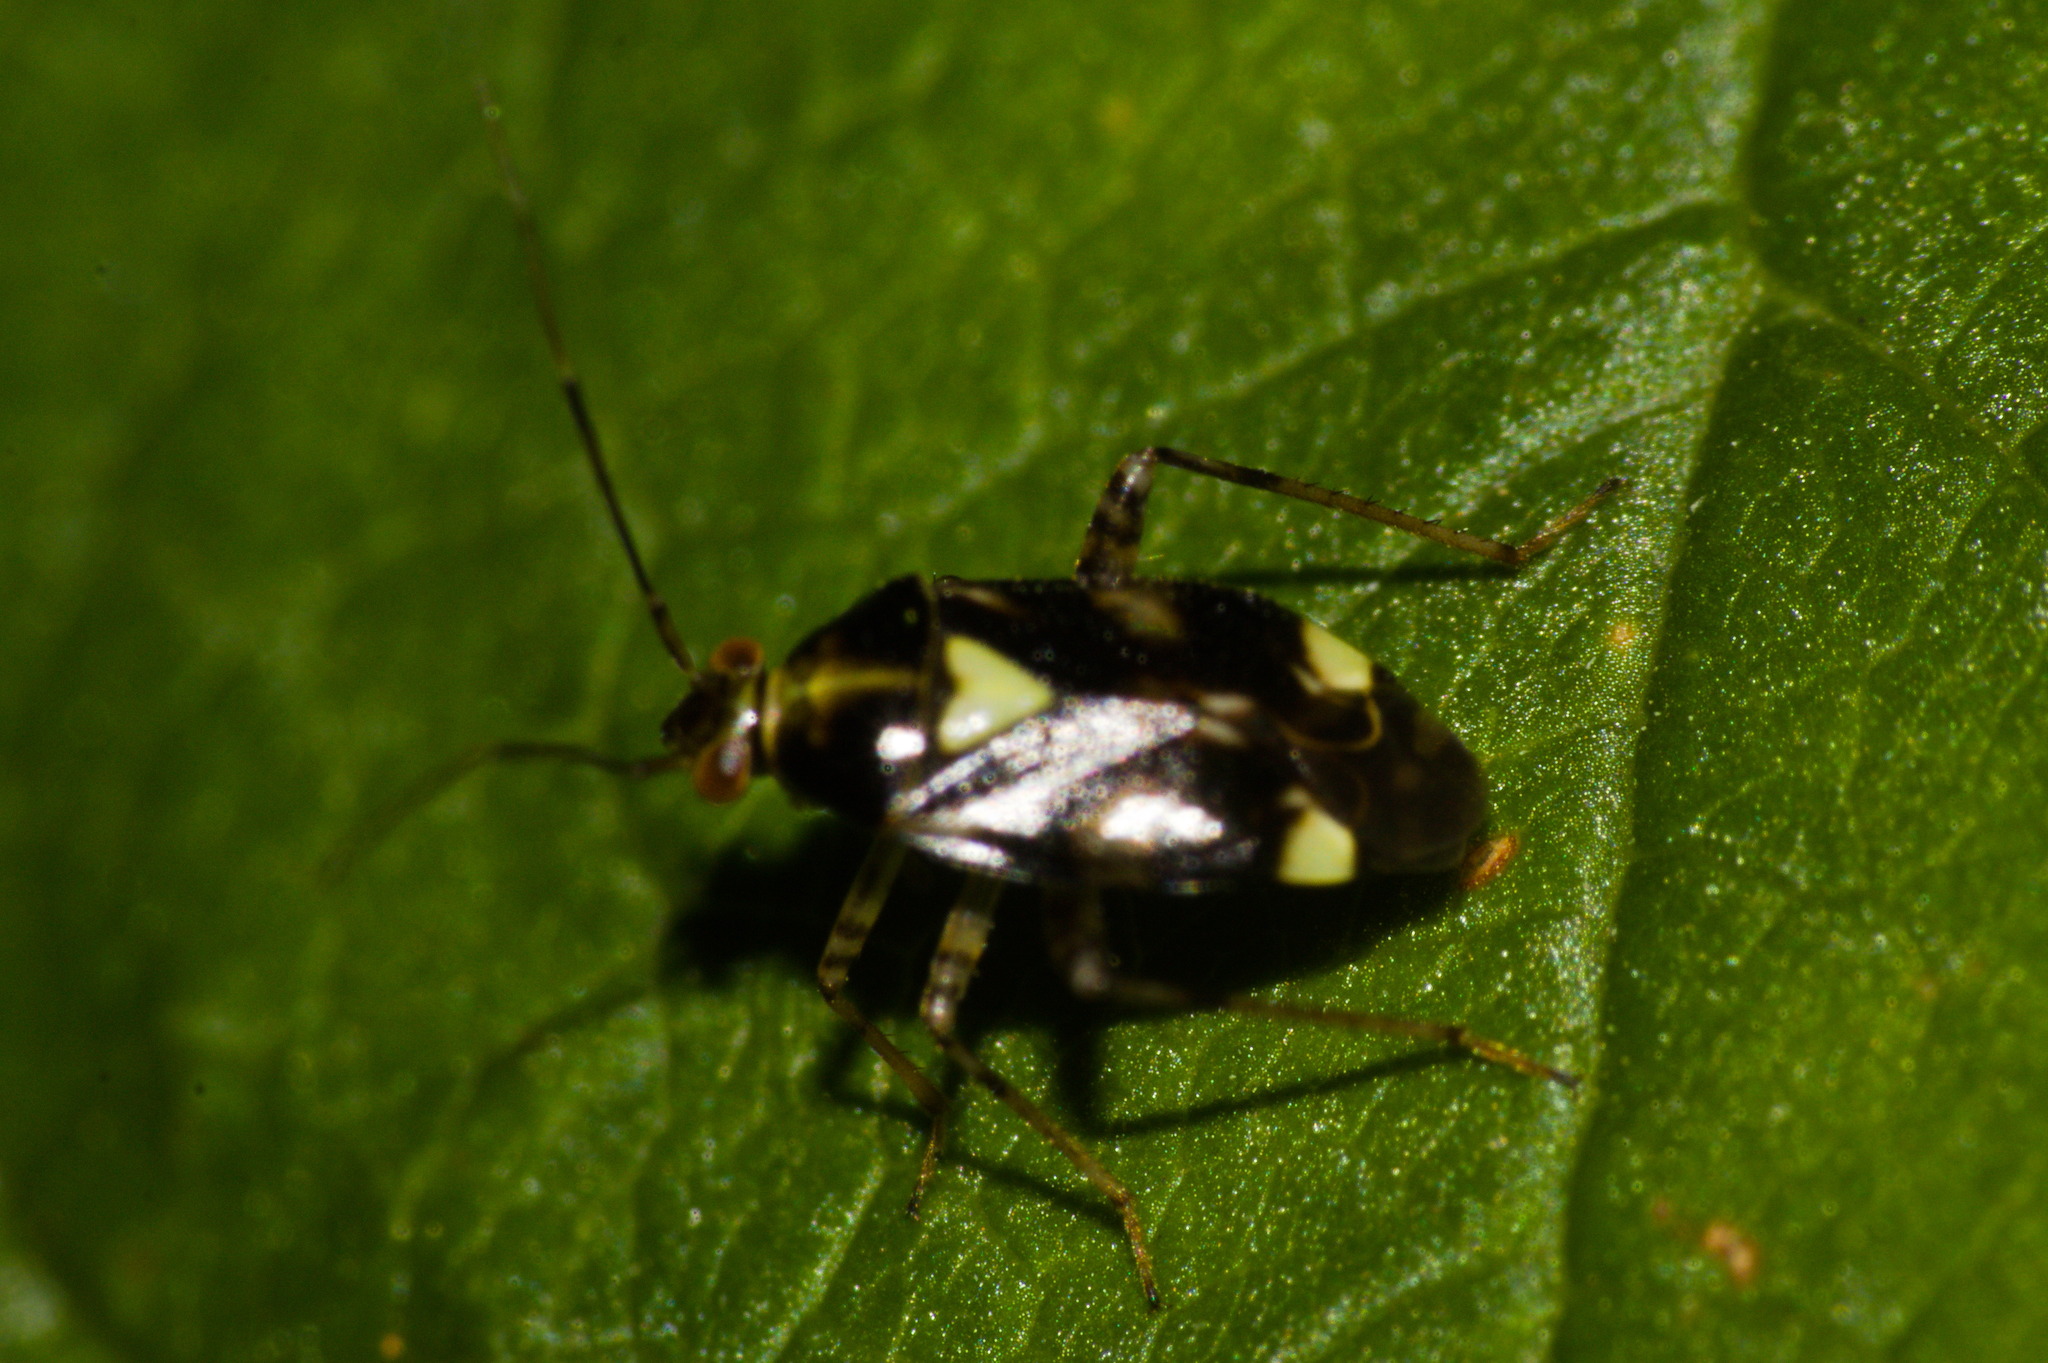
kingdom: Animalia
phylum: Arthropoda
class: Insecta
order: Hemiptera
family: Miridae
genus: Liocoris
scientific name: Liocoris tripustulatus
